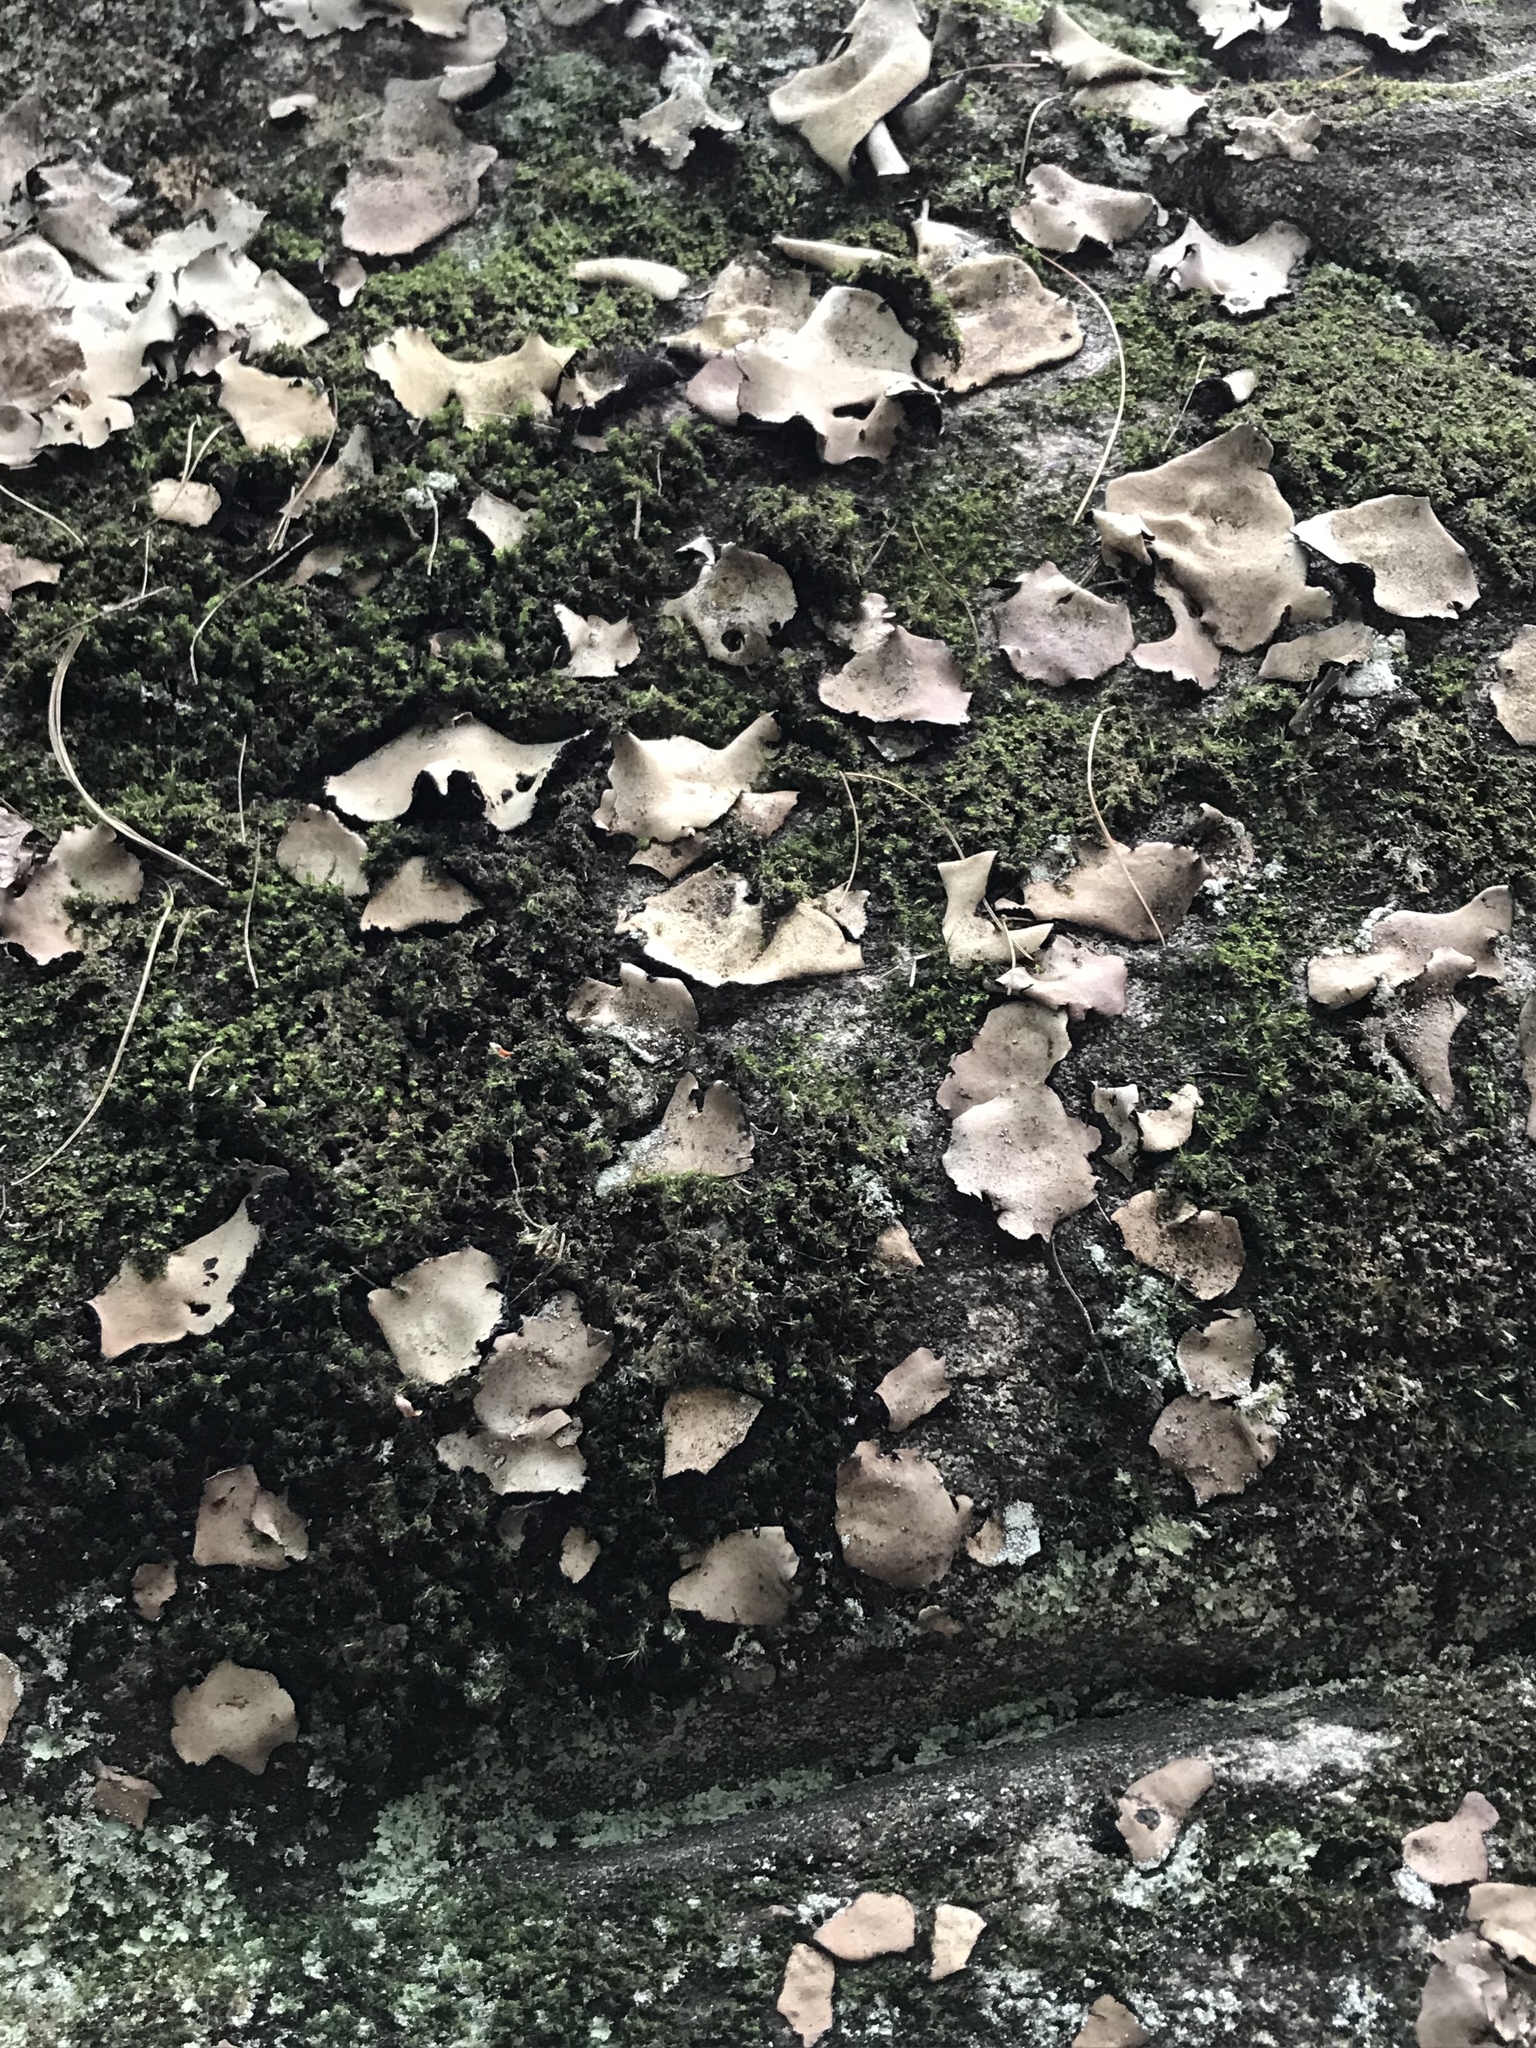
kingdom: Fungi
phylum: Ascomycota
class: Lecanoromycetes
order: Umbilicariales
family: Umbilicariaceae
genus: Umbilicaria
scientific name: Umbilicaria mammulata
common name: Smooth rock tripe
